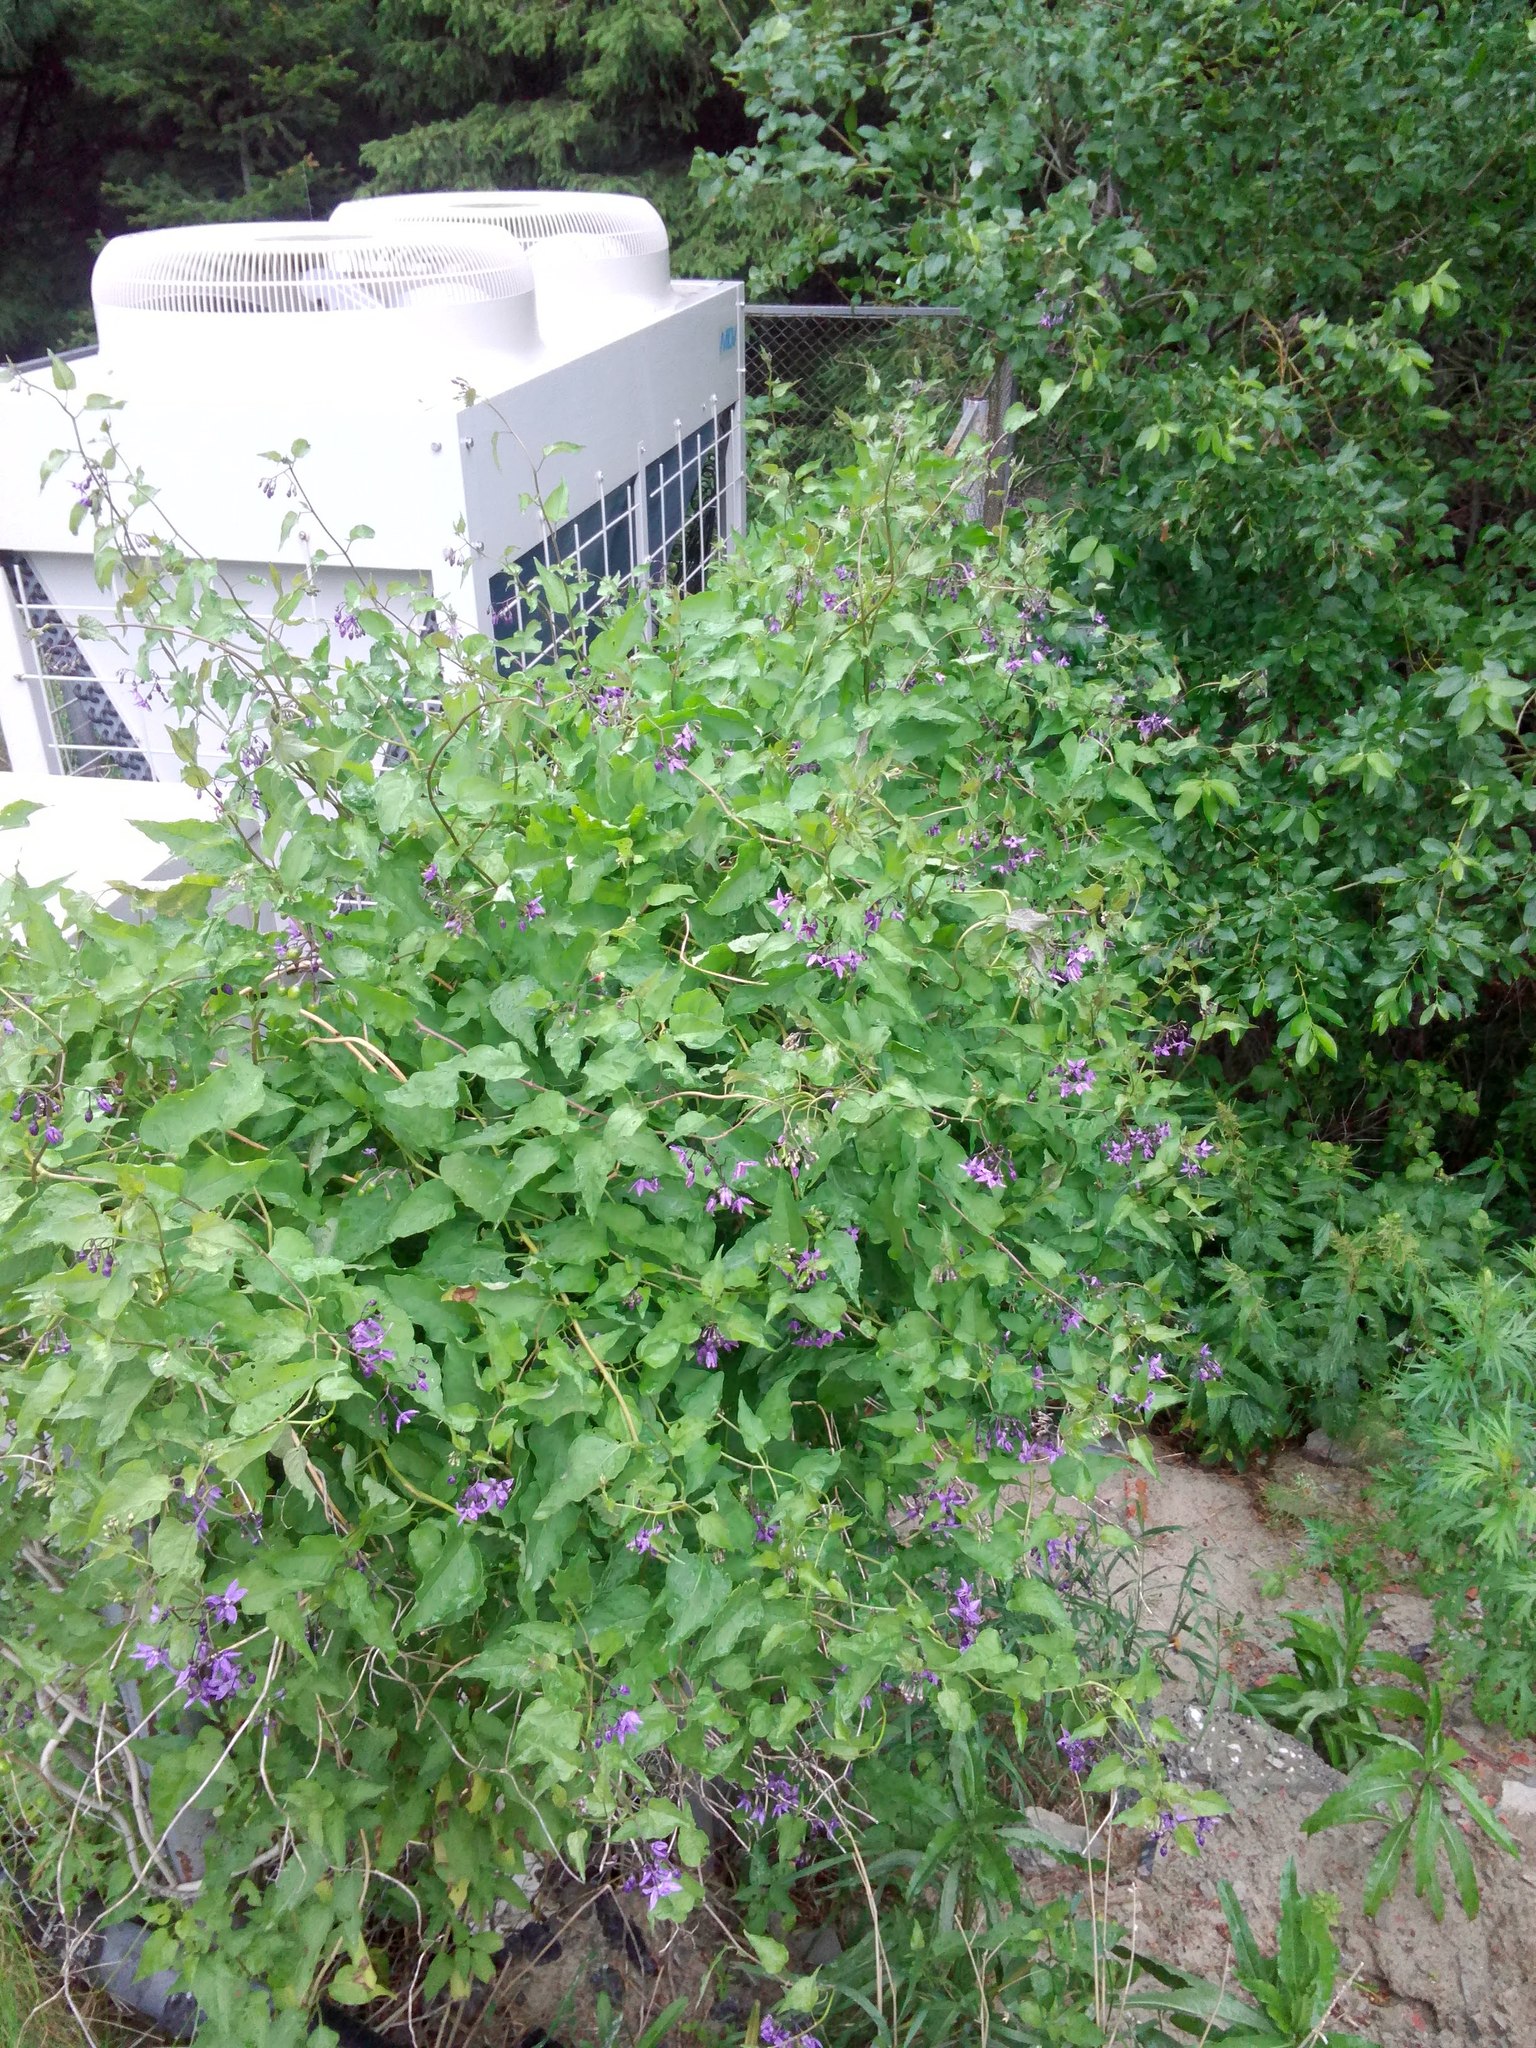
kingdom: Plantae
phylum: Tracheophyta
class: Magnoliopsida
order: Solanales
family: Solanaceae
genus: Solanum
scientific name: Solanum dulcamara
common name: Climbing nightshade
